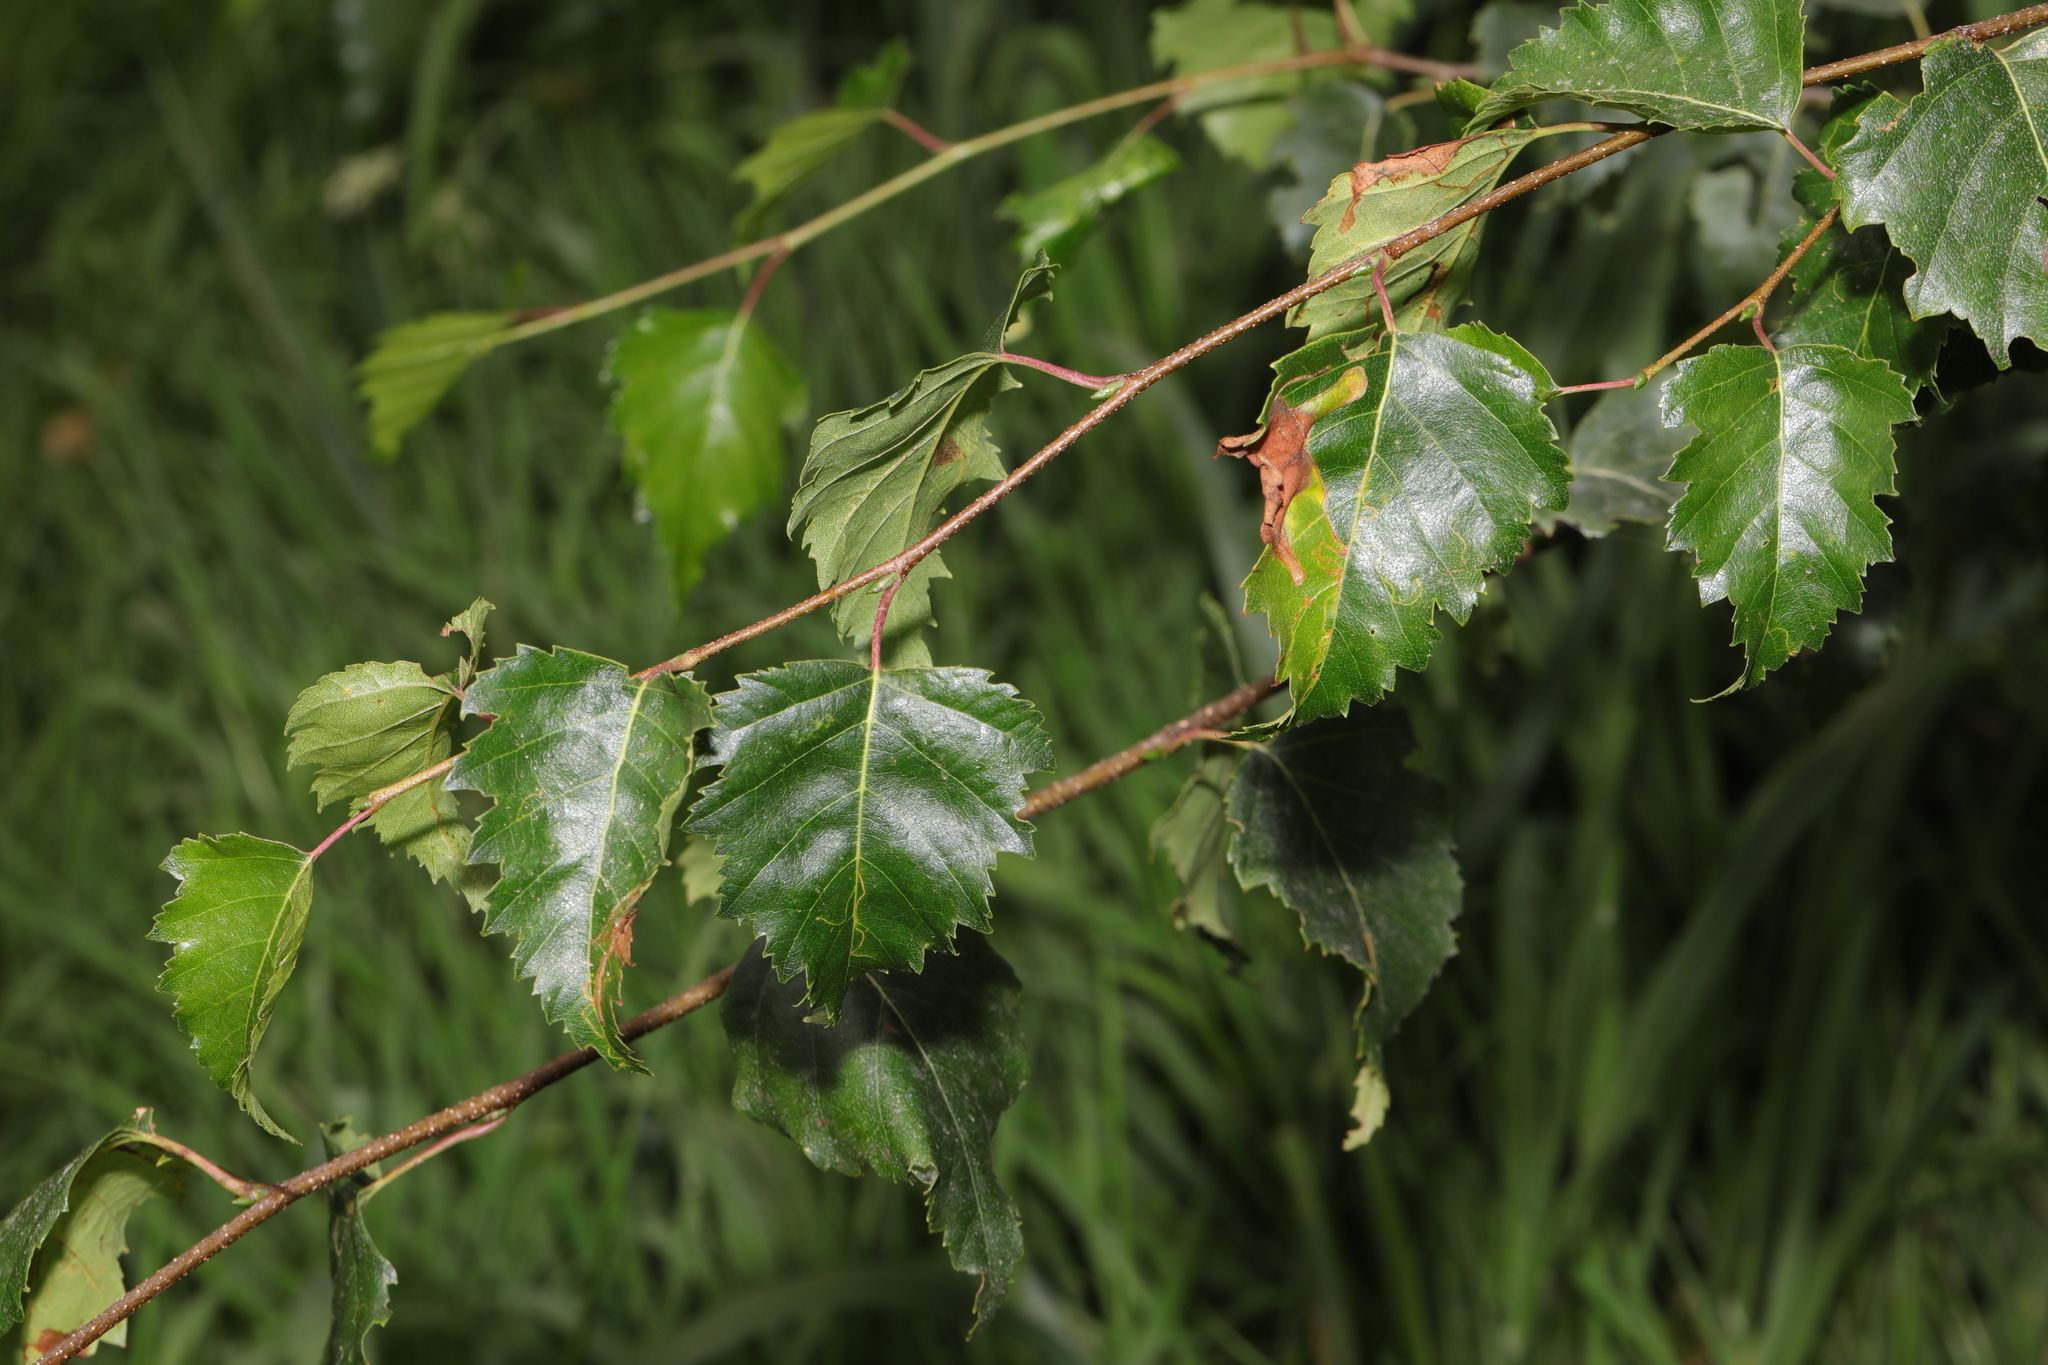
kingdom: Plantae
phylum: Tracheophyta
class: Magnoliopsida
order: Fagales
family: Betulaceae
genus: Betula
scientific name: Betula pendula
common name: Silver birch
